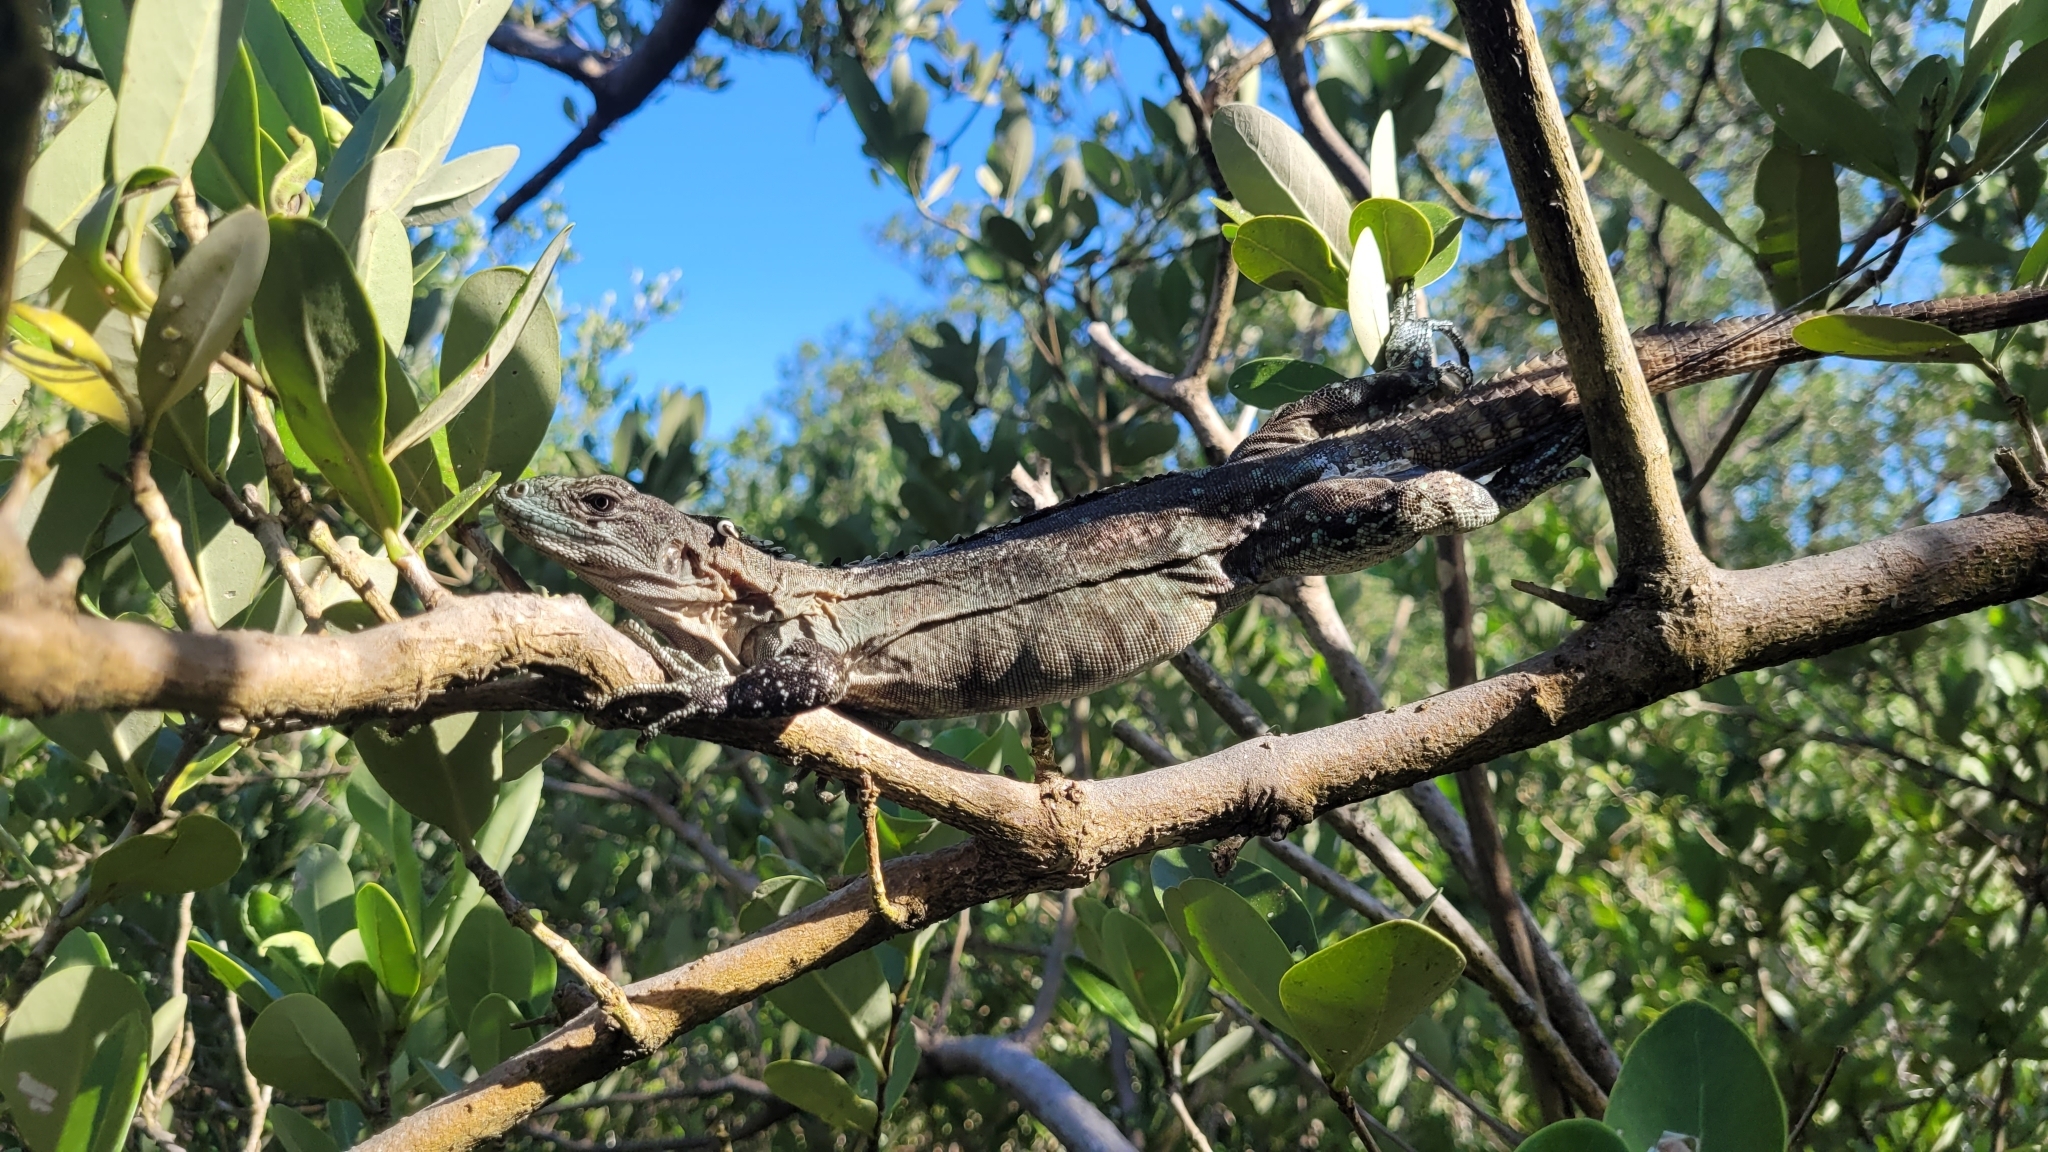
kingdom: Animalia
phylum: Chordata
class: Squamata
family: Iguanidae
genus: Ctenosaura
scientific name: Ctenosaura bakeri
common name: Utila spiny-tailed iguana
